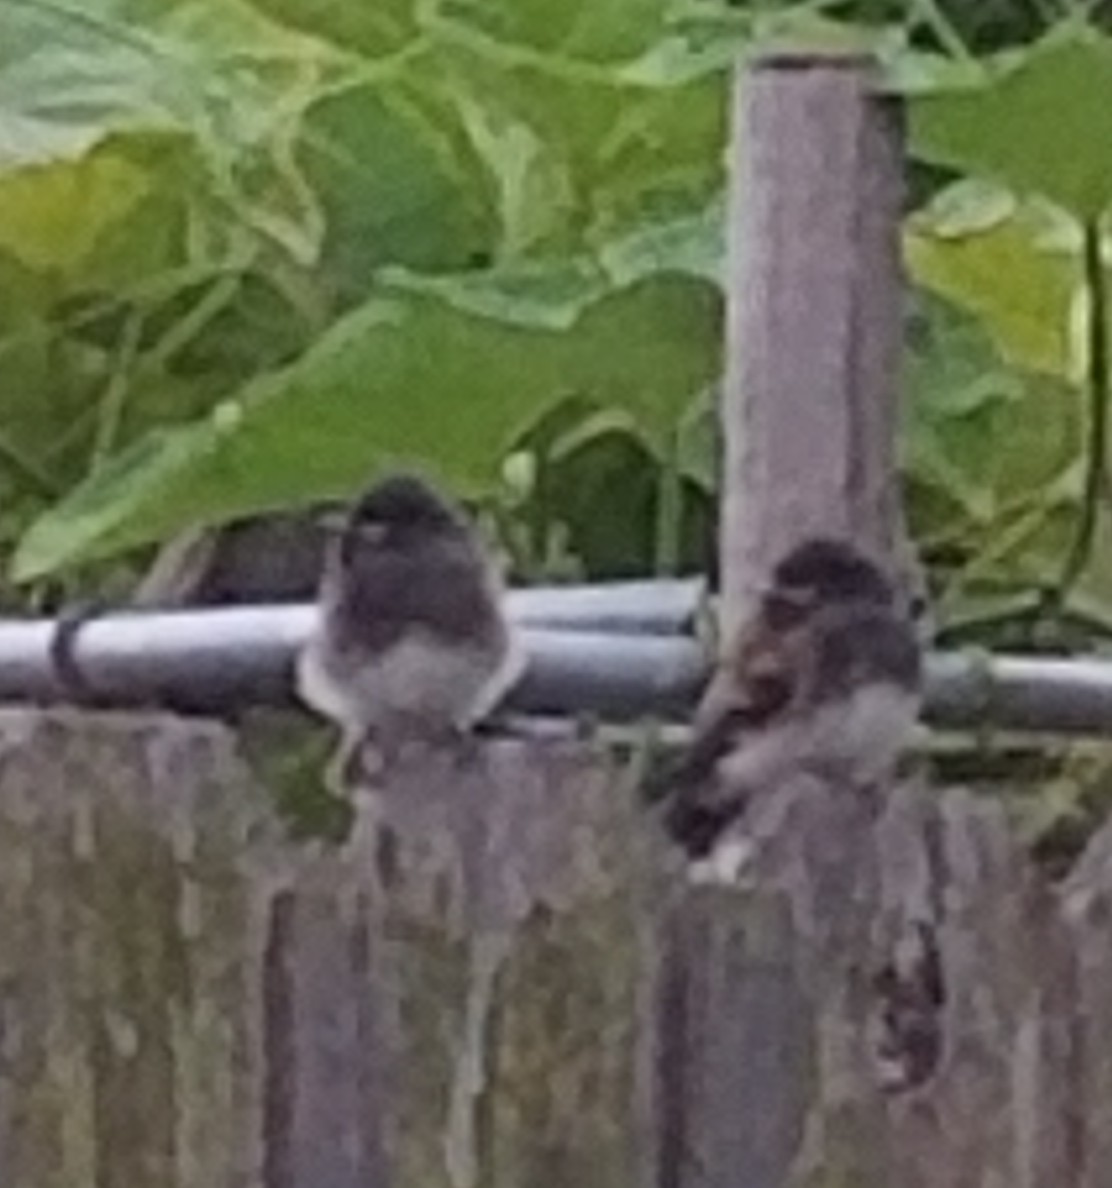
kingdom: Animalia
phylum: Chordata
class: Aves
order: Passeriformes
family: Tyrannidae
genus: Sayornis
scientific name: Sayornis nigricans
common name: Black phoebe
